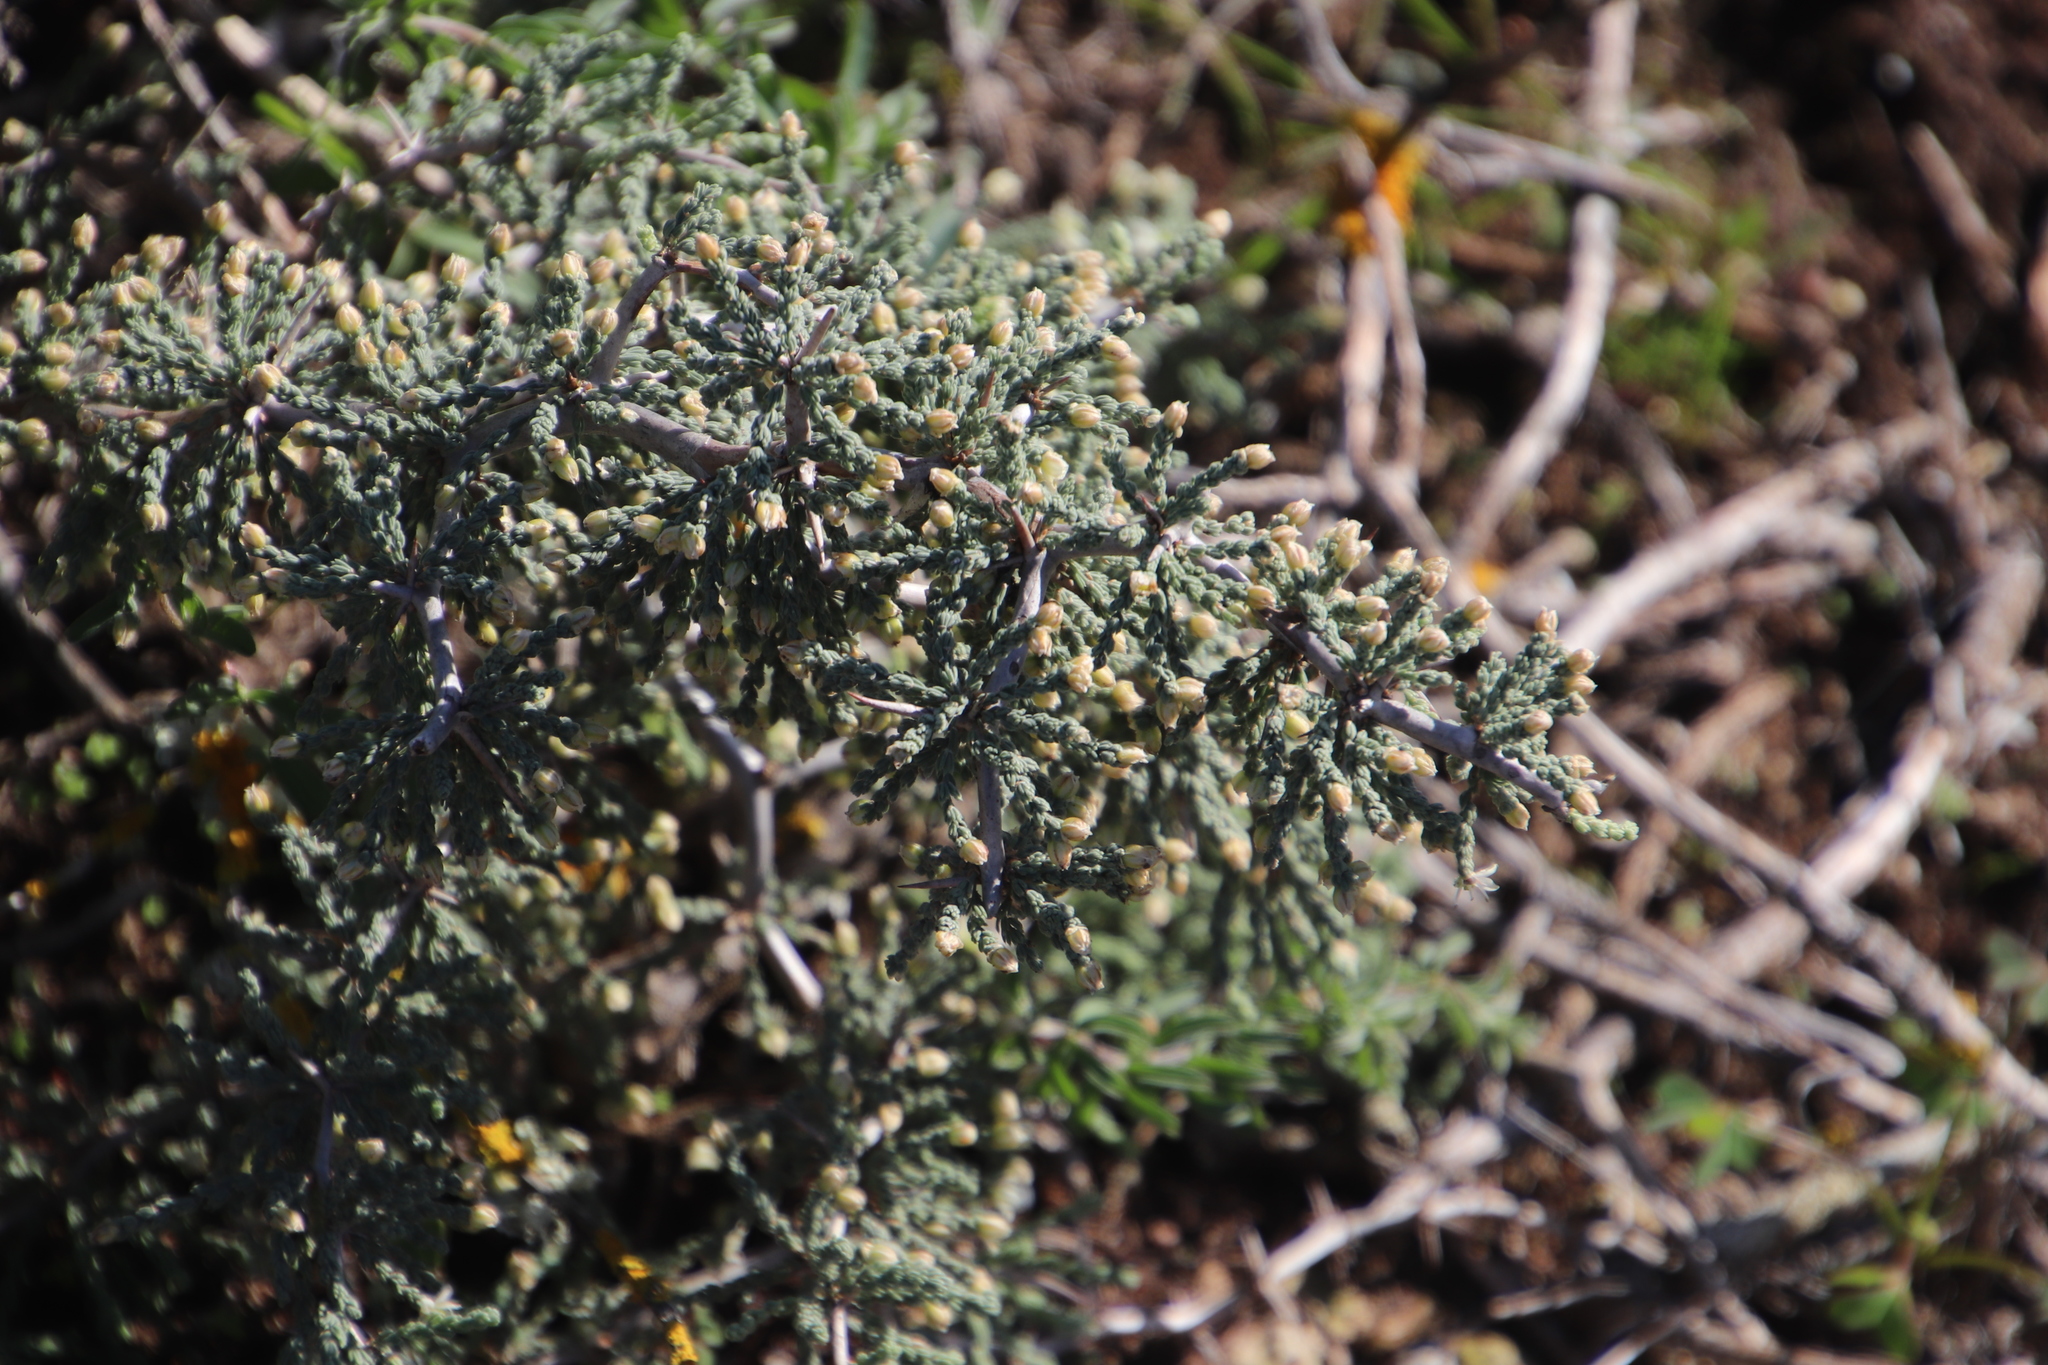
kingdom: Plantae
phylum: Tracheophyta
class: Liliopsida
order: Asparagales
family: Asparagaceae
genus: Asparagus
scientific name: Asparagus capensis
